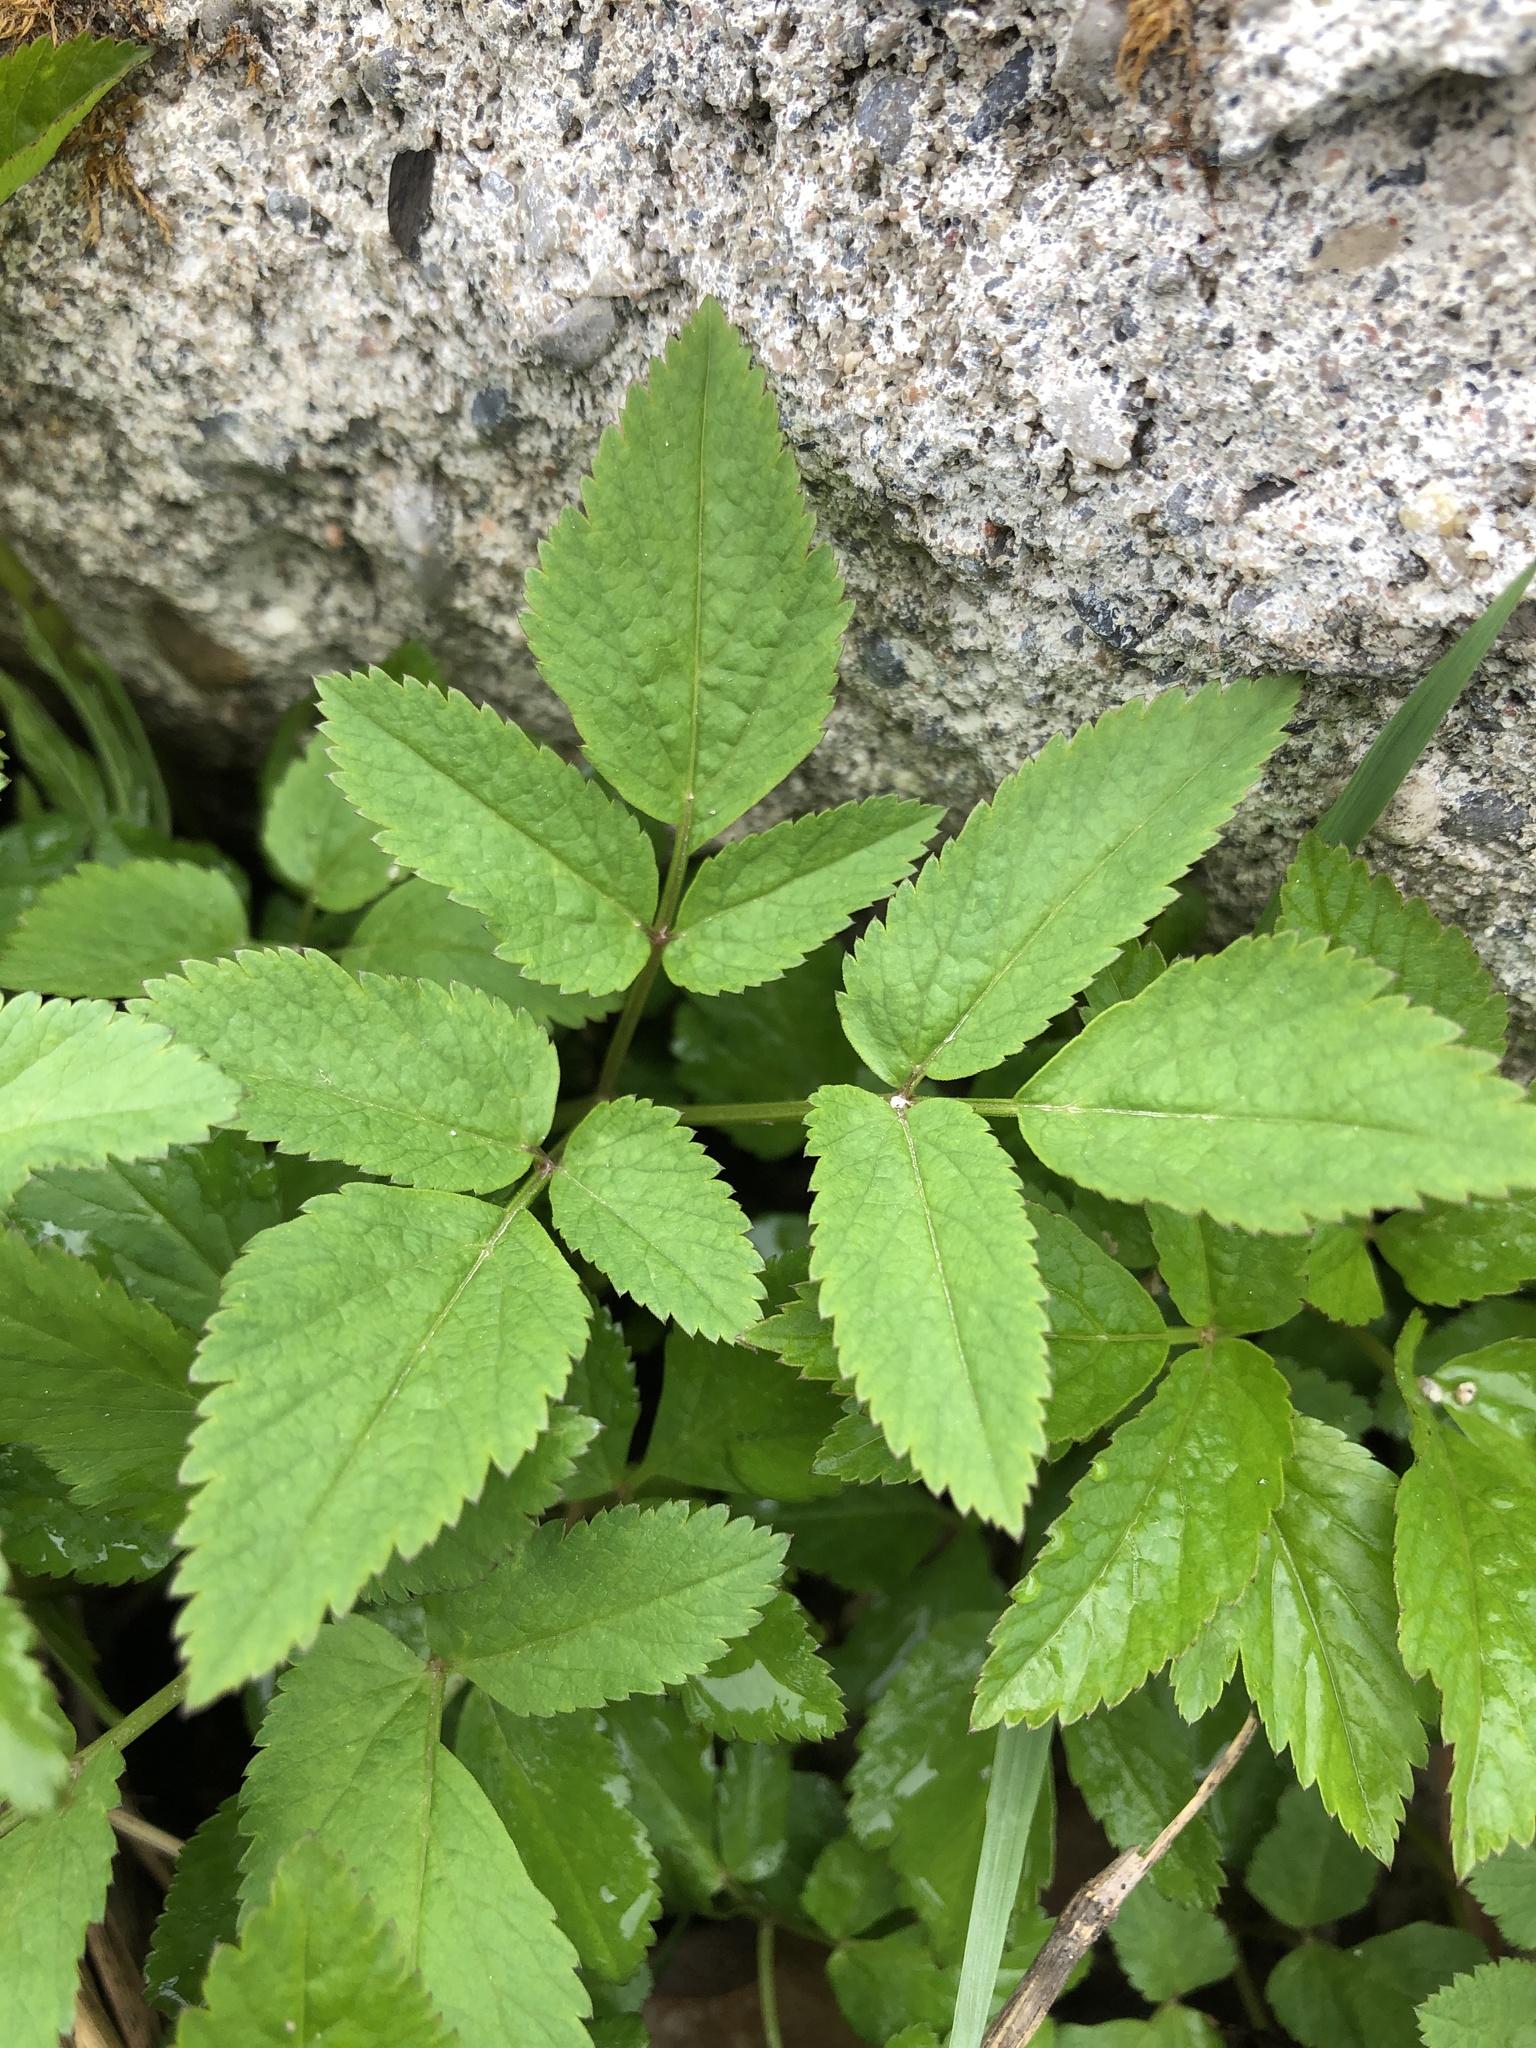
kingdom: Plantae
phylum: Tracheophyta
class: Magnoliopsida
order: Apiales
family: Apiaceae
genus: Aegopodium
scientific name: Aegopodium podagraria
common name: Ground-elder
